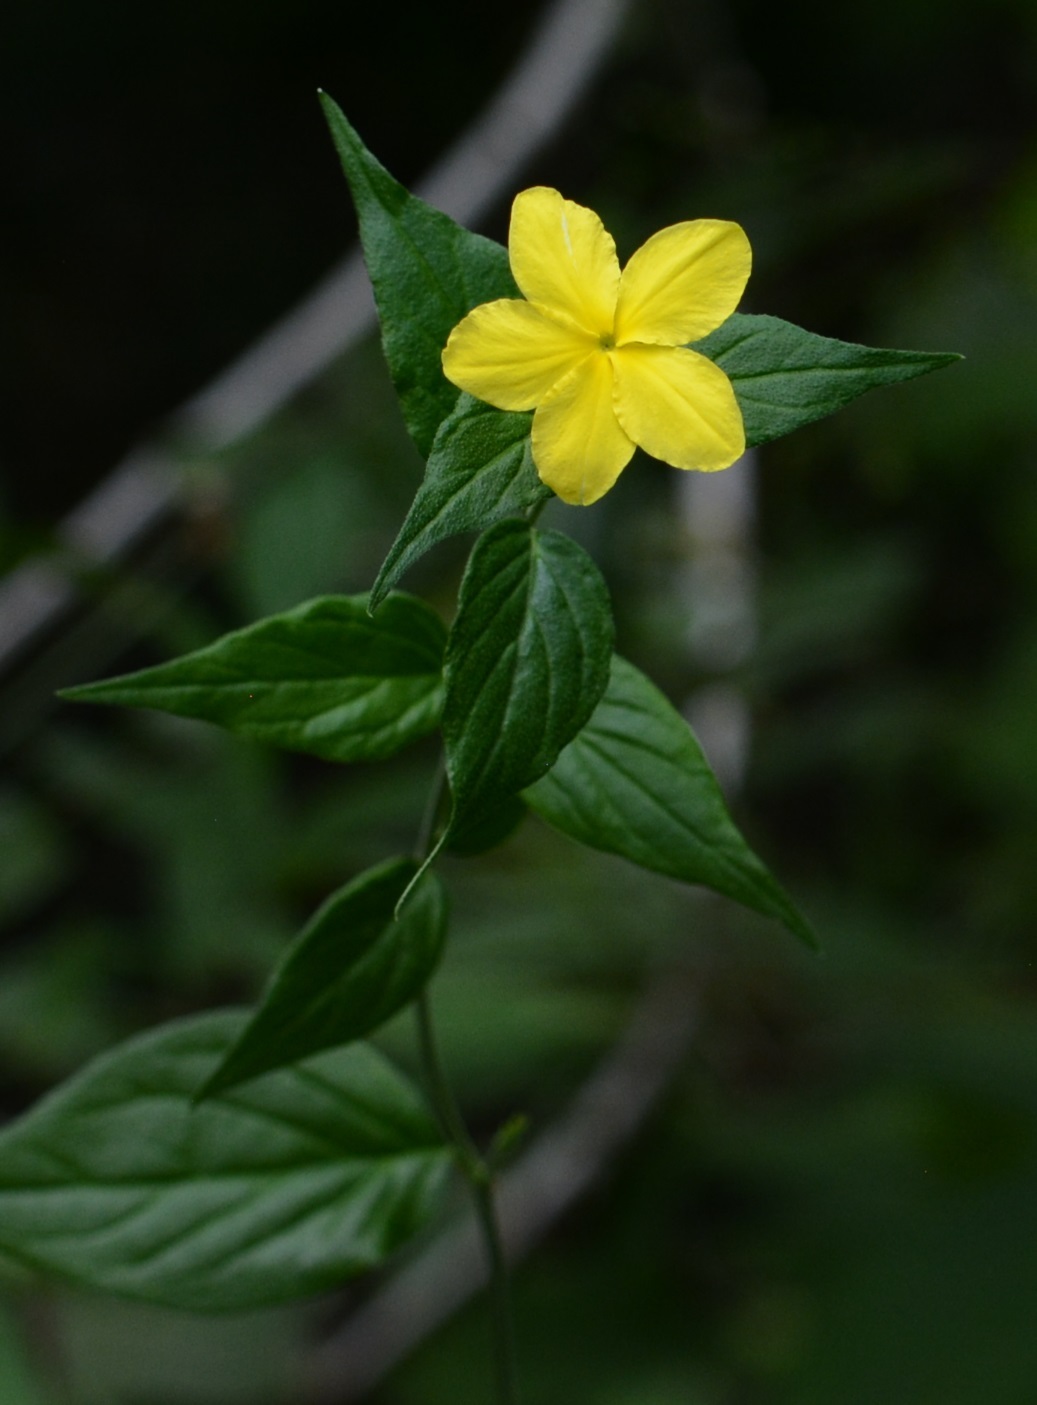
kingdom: Plantae
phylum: Tracheophyta
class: Magnoliopsida
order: Gentianales
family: Apocynaceae
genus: Haplophyton
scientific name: Haplophyton cimicidum
